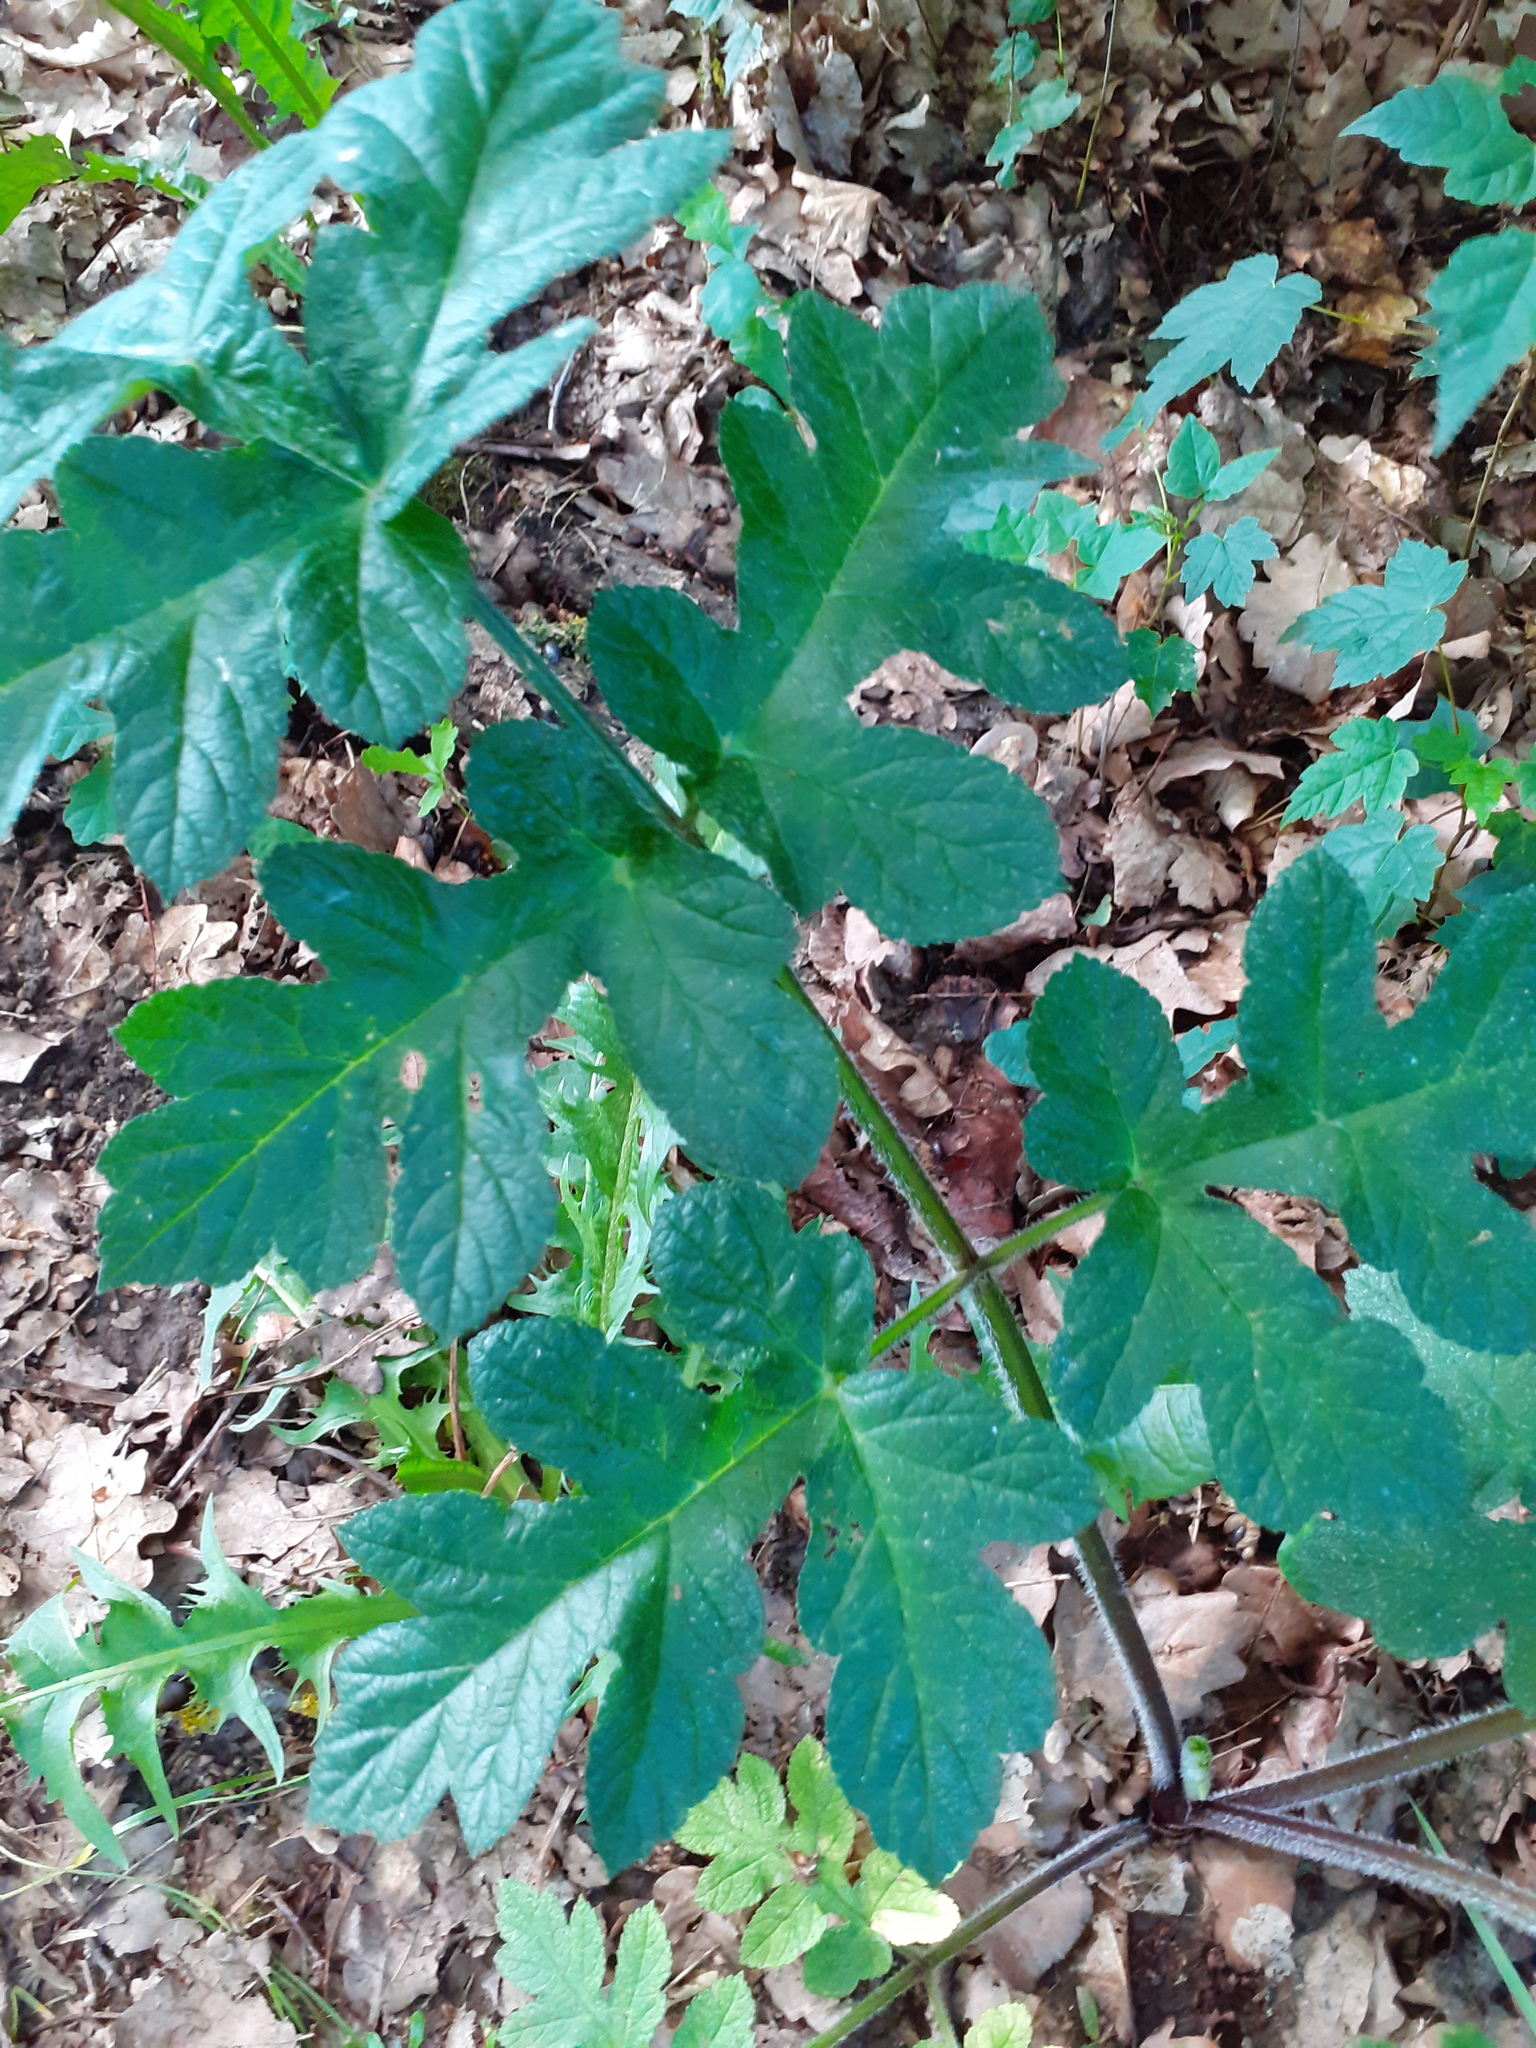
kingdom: Plantae
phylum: Tracheophyta
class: Magnoliopsida
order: Apiales
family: Apiaceae
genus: Heracleum
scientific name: Heracleum sphondylium
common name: Hogweed
